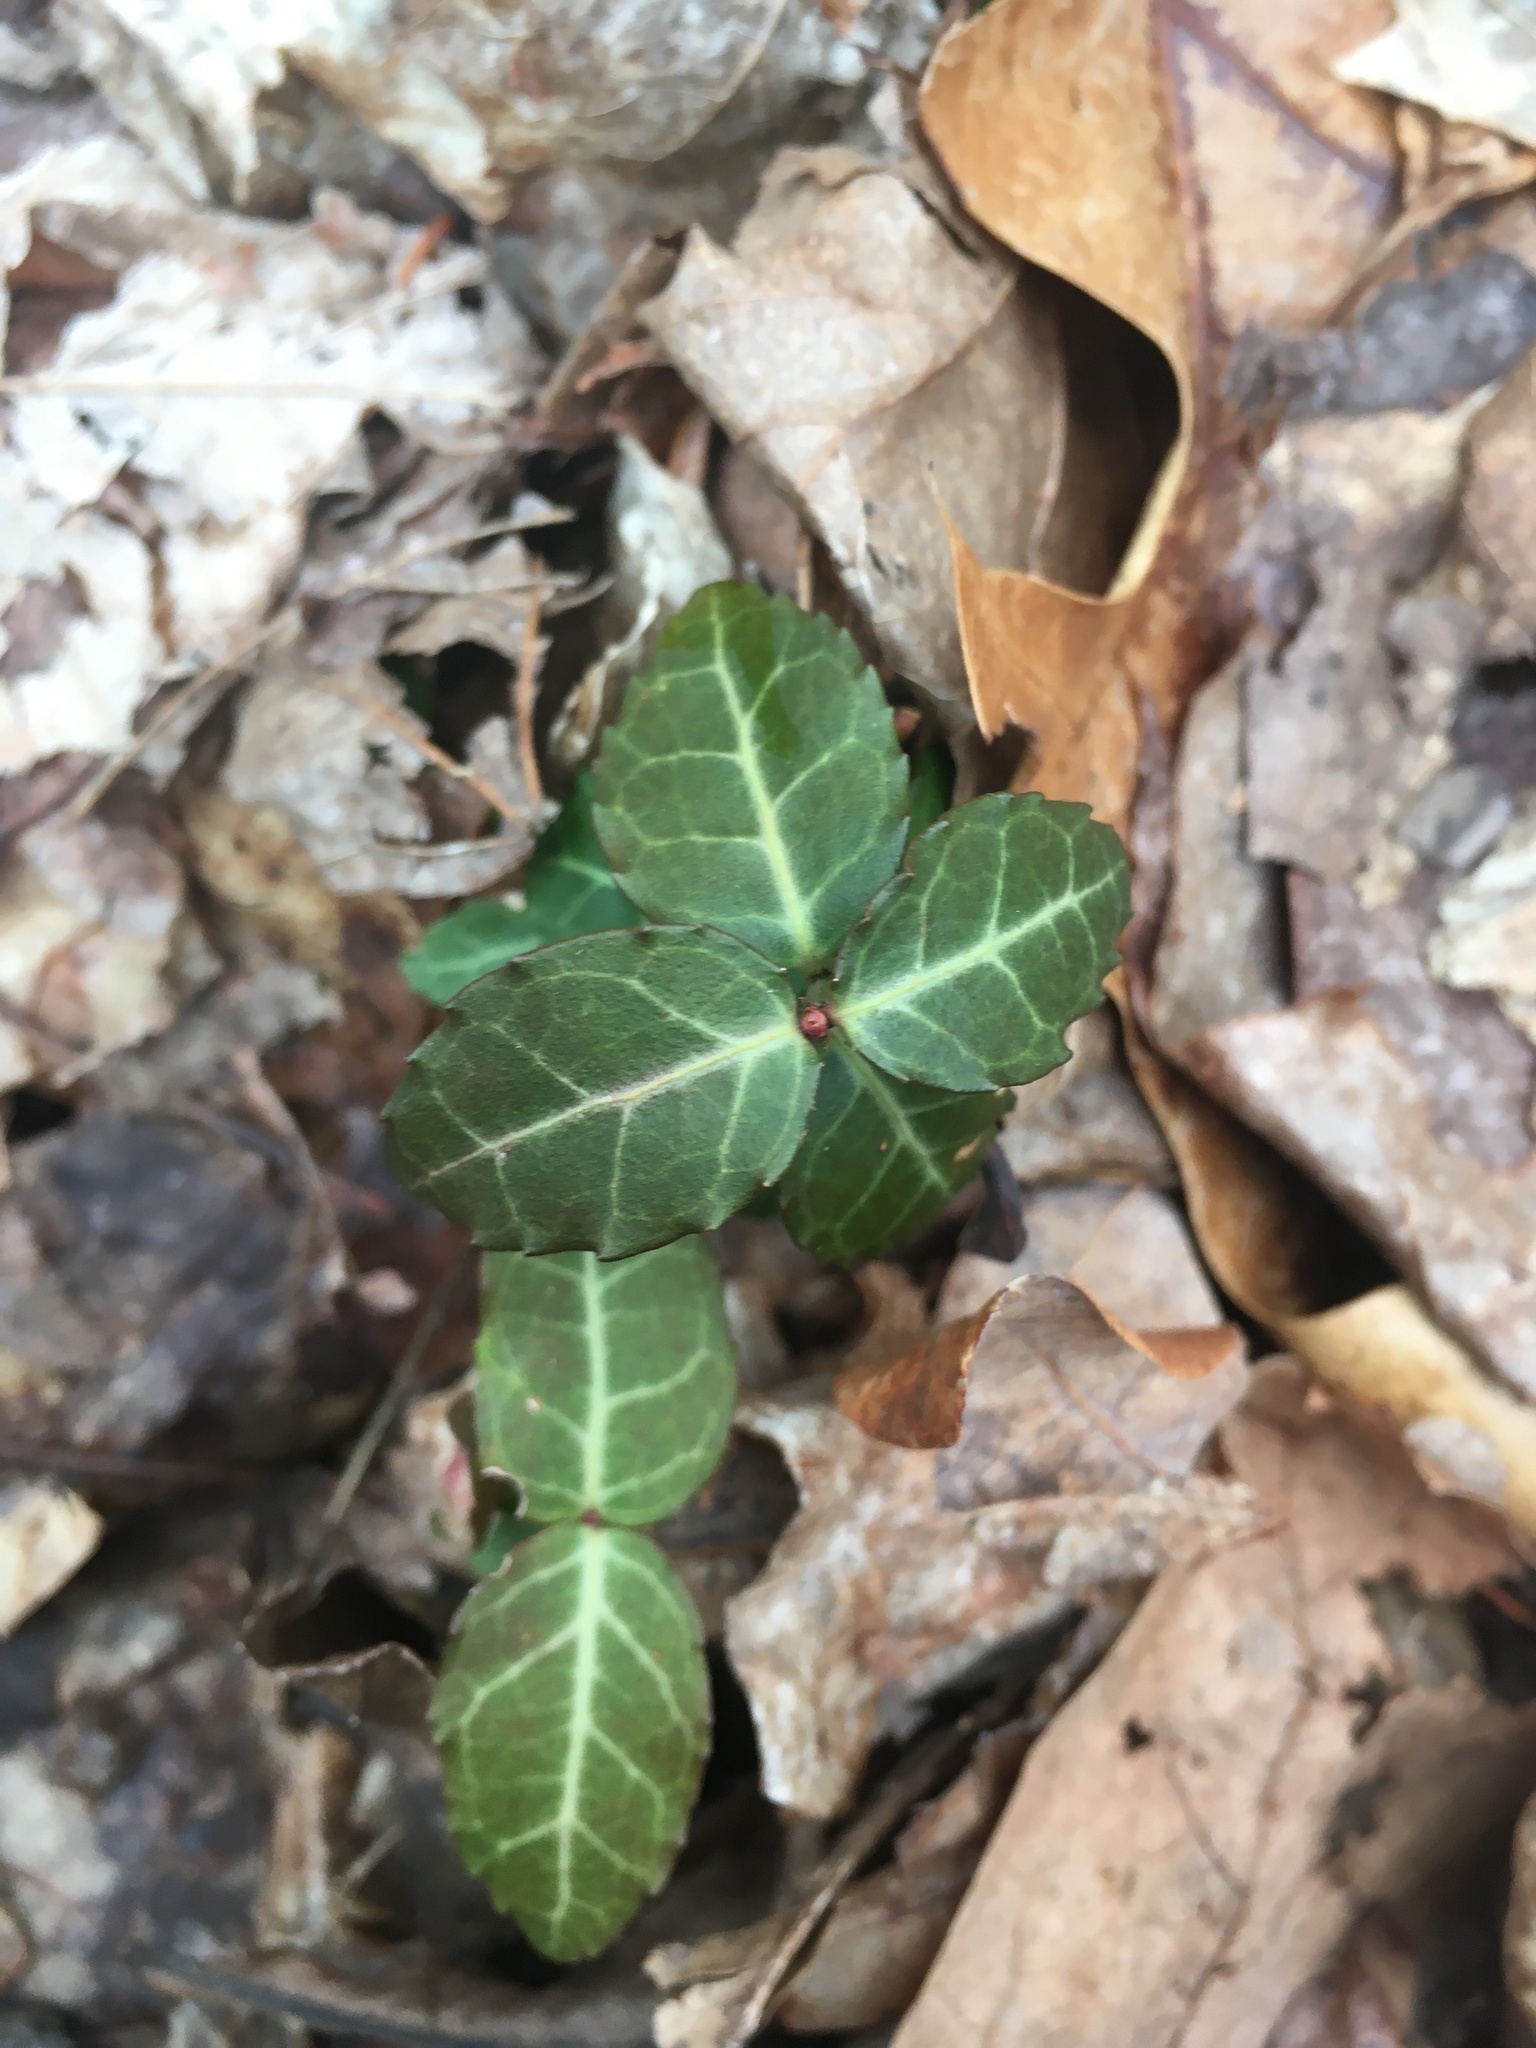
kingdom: Plantae
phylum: Tracheophyta
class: Magnoliopsida
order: Ericales
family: Ericaceae
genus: Chimaphila
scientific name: Chimaphila maculata
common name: Spotted pipsissewa
